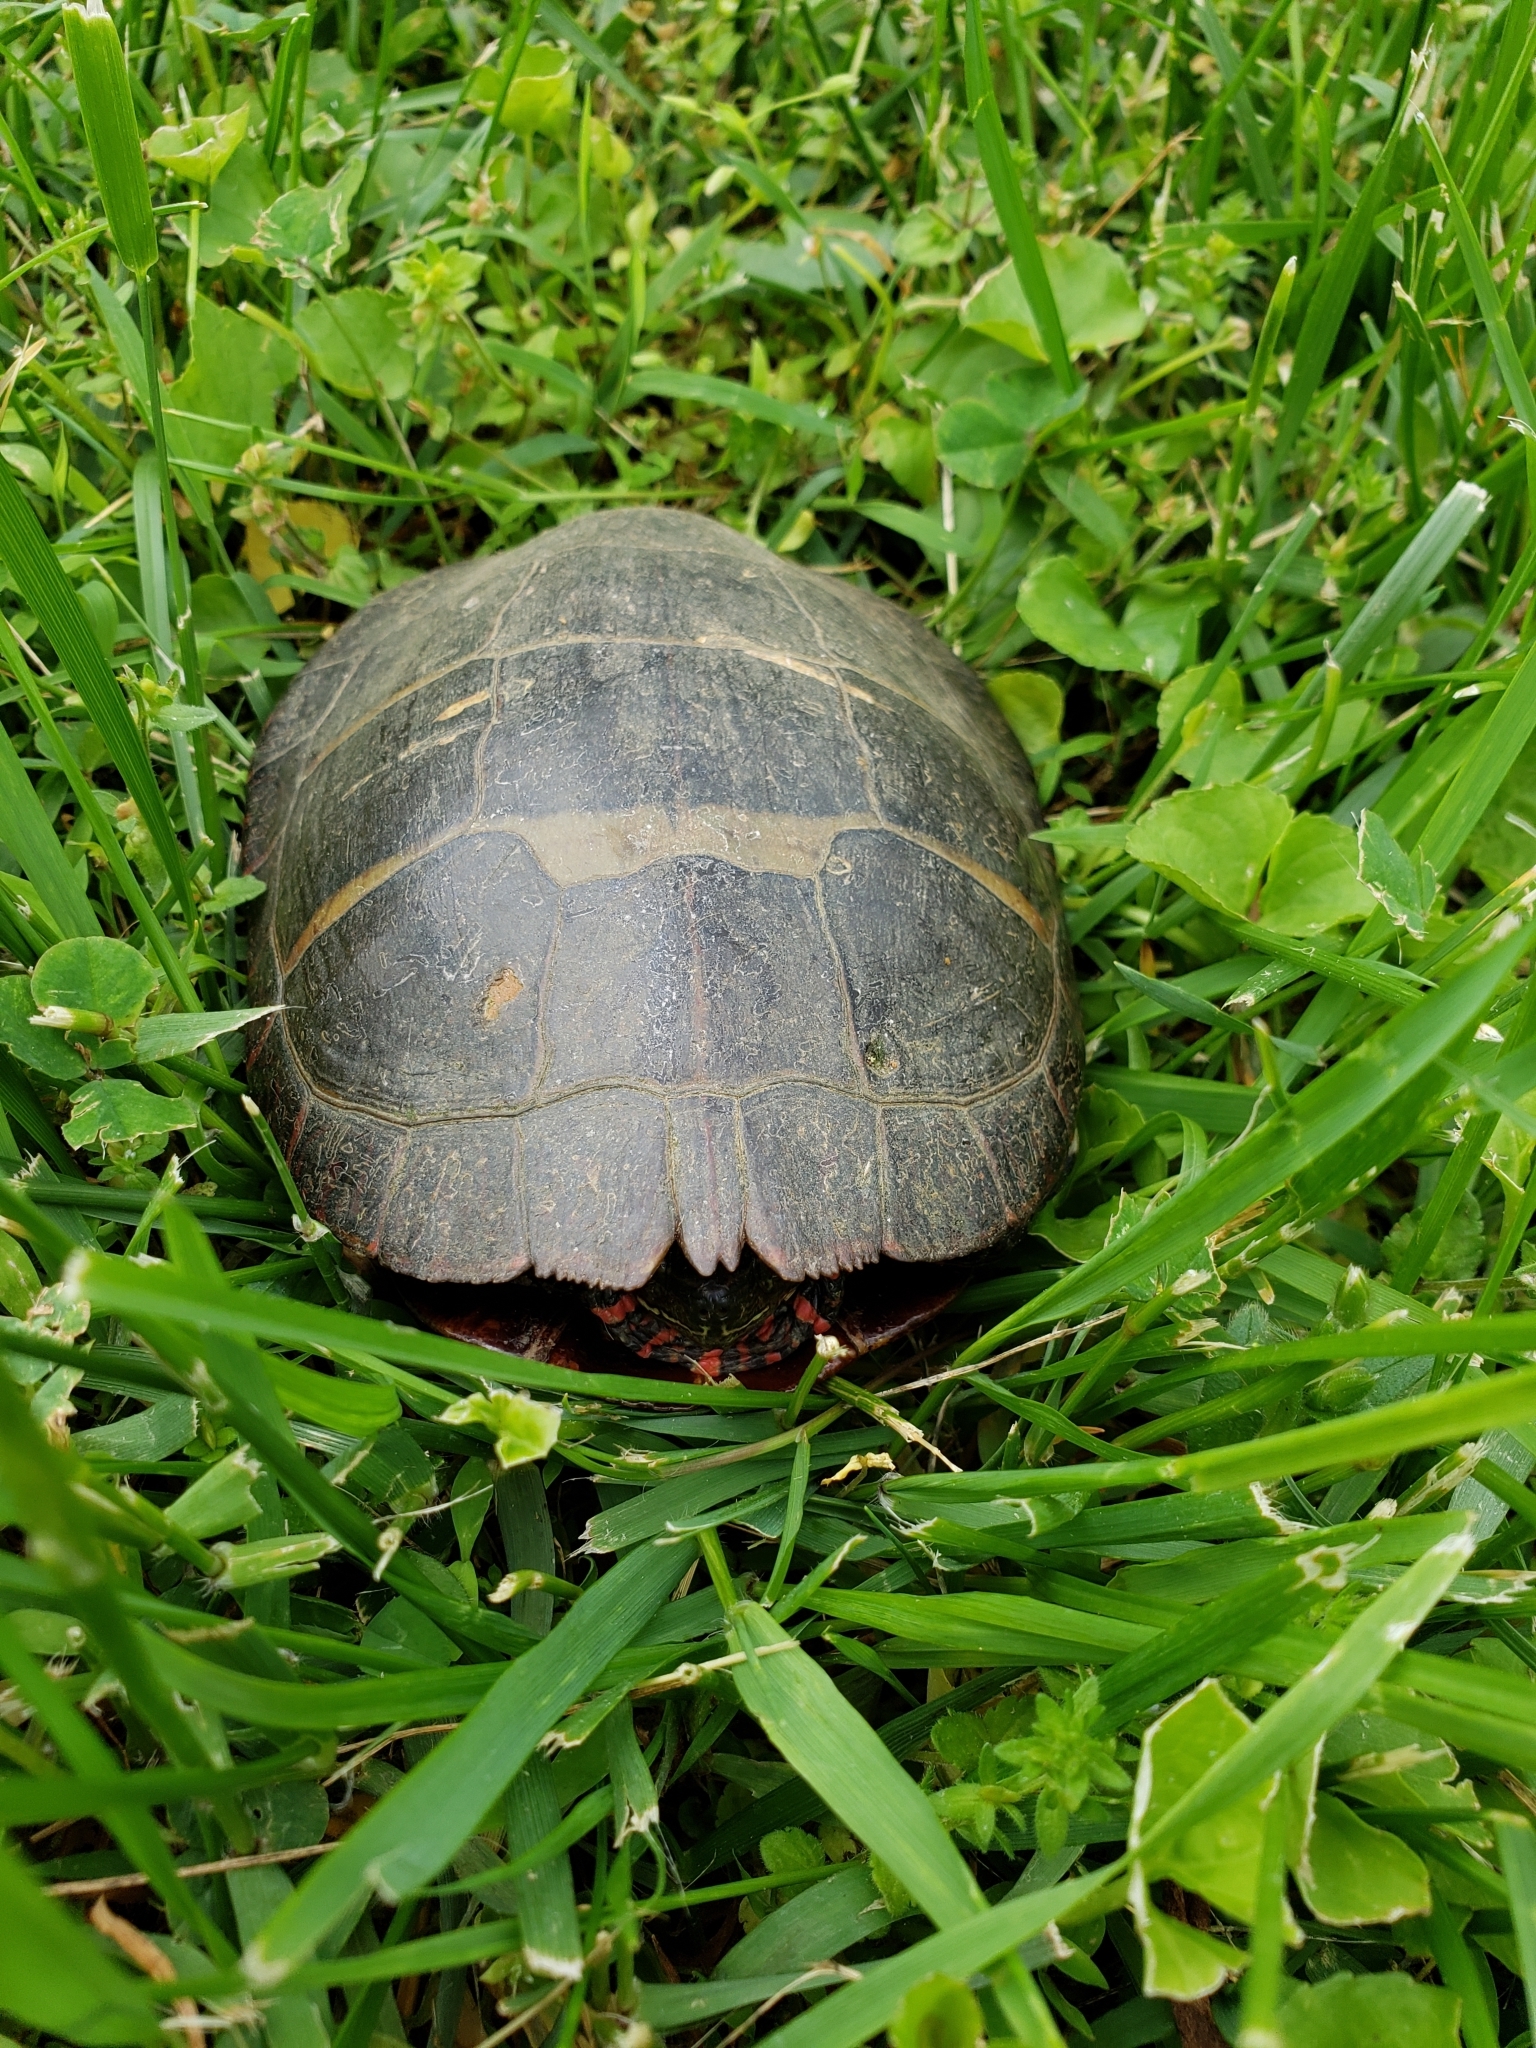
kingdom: Animalia
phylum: Chordata
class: Testudines
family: Emydidae
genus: Chrysemys
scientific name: Chrysemys picta
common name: Painted turtle
